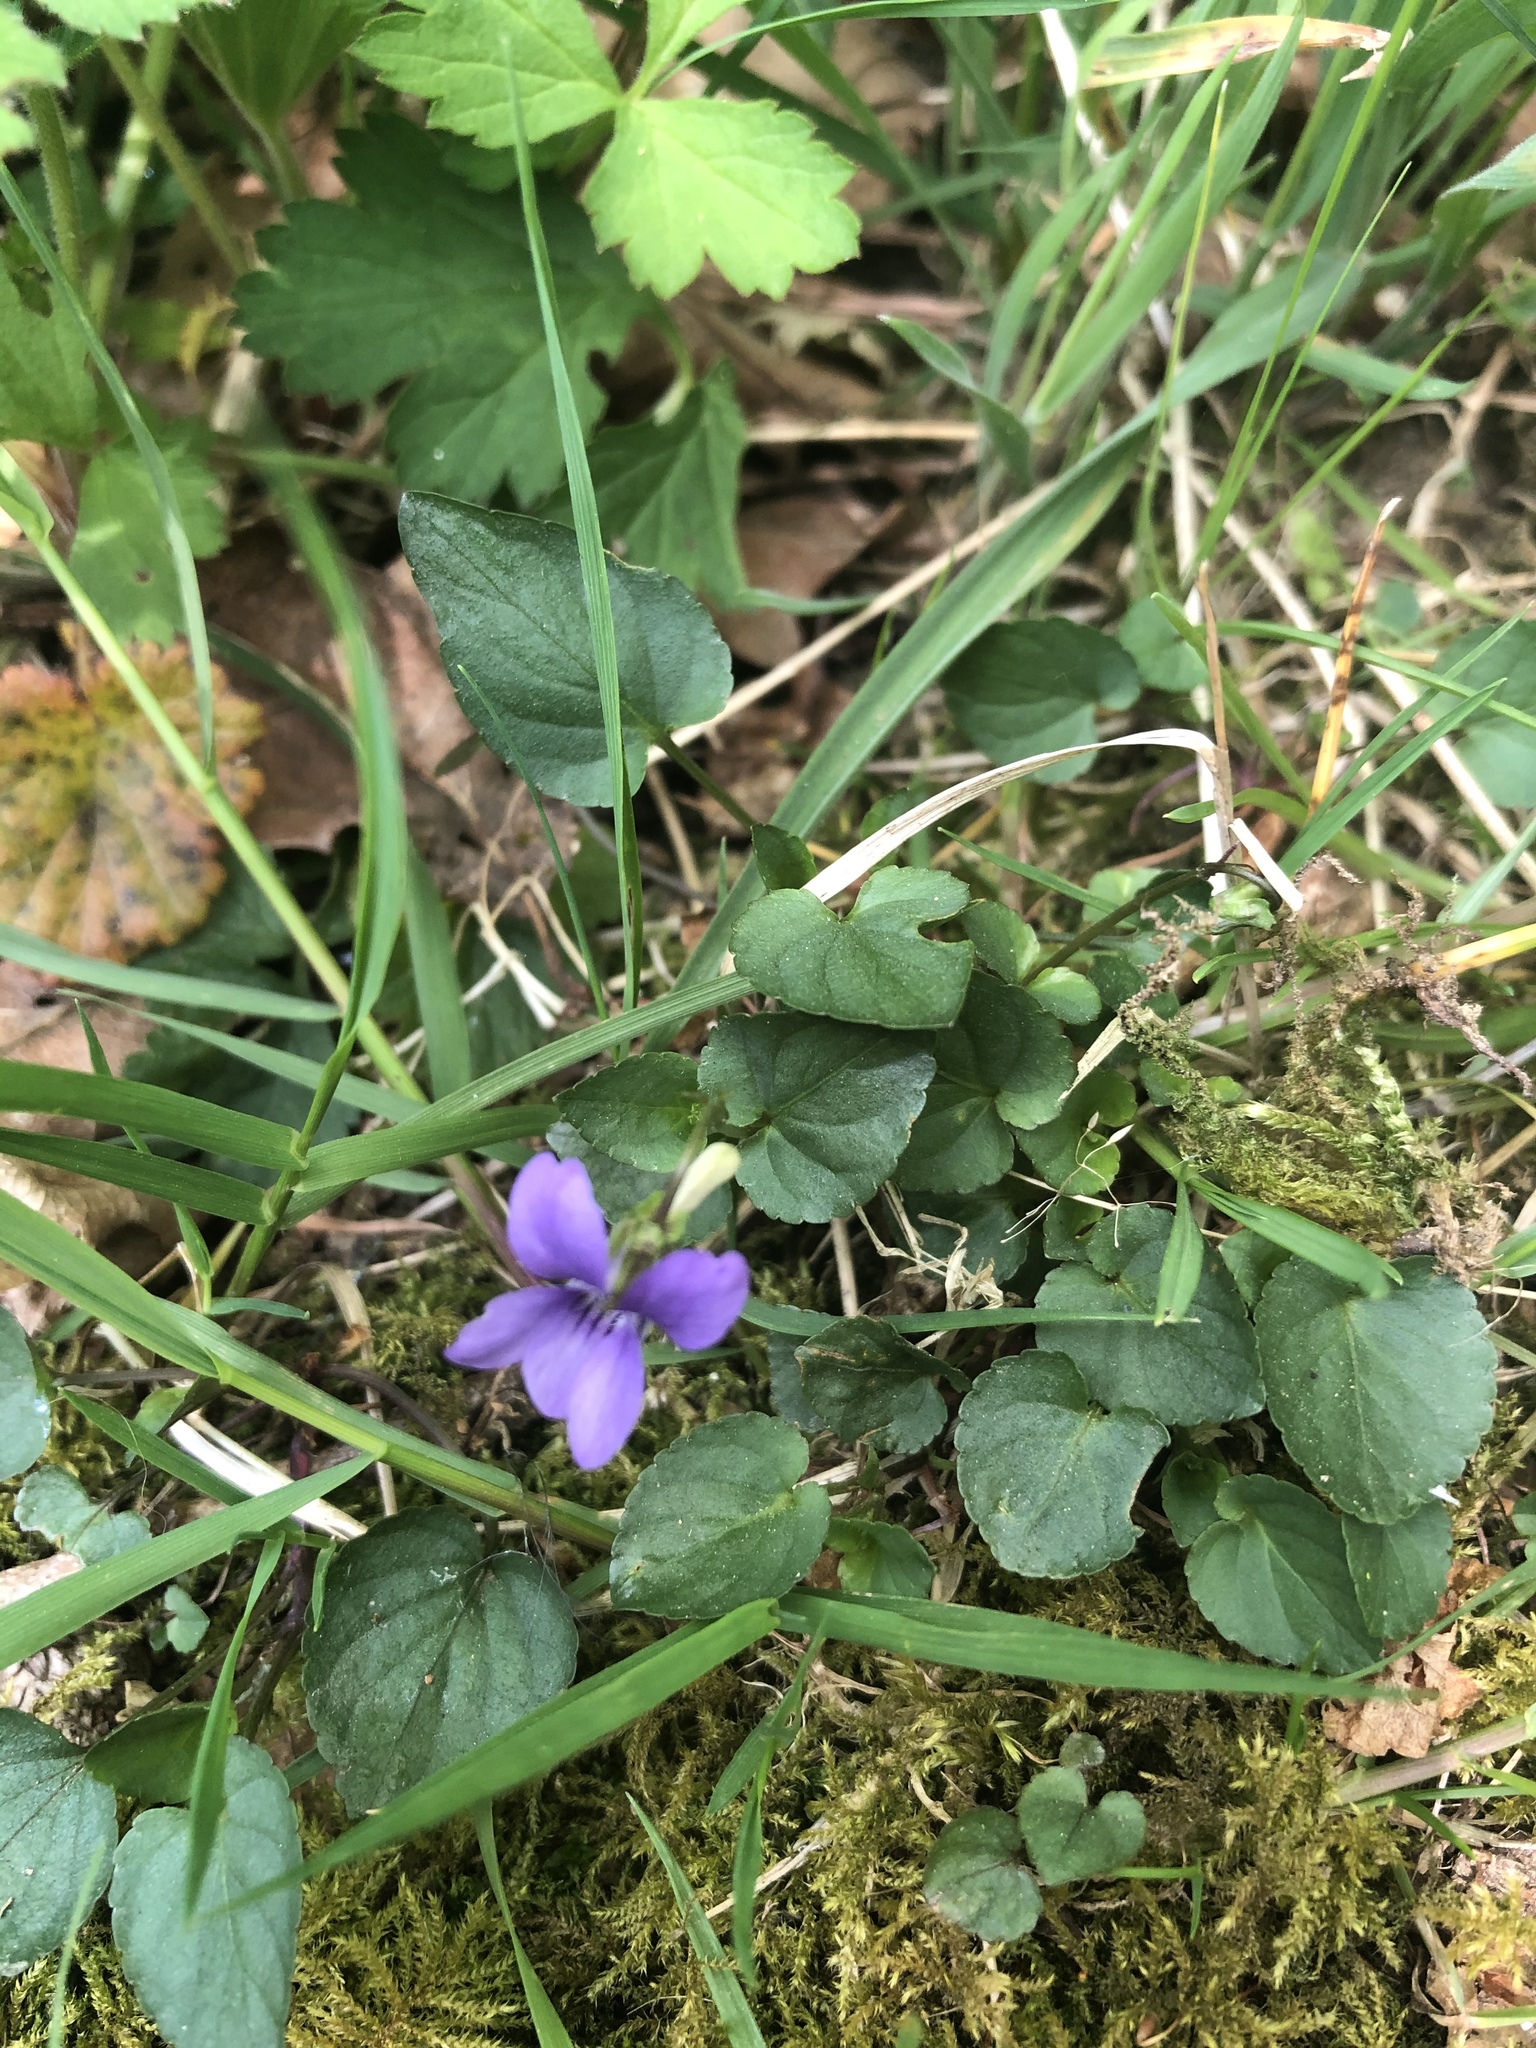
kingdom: Plantae
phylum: Tracheophyta
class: Magnoliopsida
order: Malpighiales
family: Violaceae
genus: Viola
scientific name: Viola riviniana
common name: Common dog-violet
